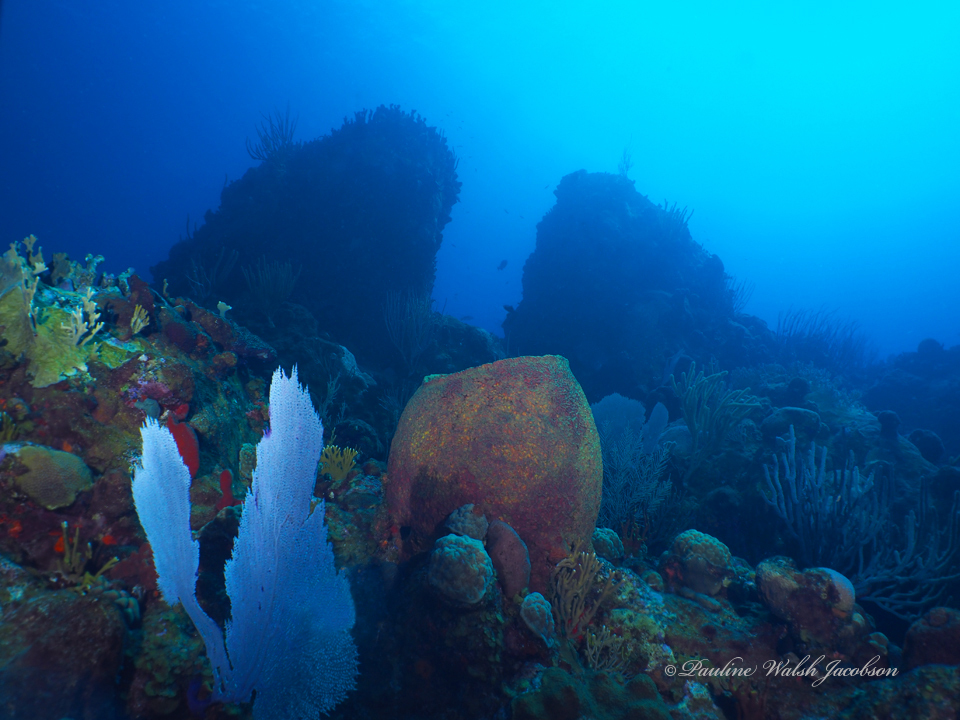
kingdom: Animalia
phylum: Porifera
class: Demospongiae
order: Verongiida
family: Aplysinidae
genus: Verongula
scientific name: Verongula gigantea
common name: Netted barrel sponge
